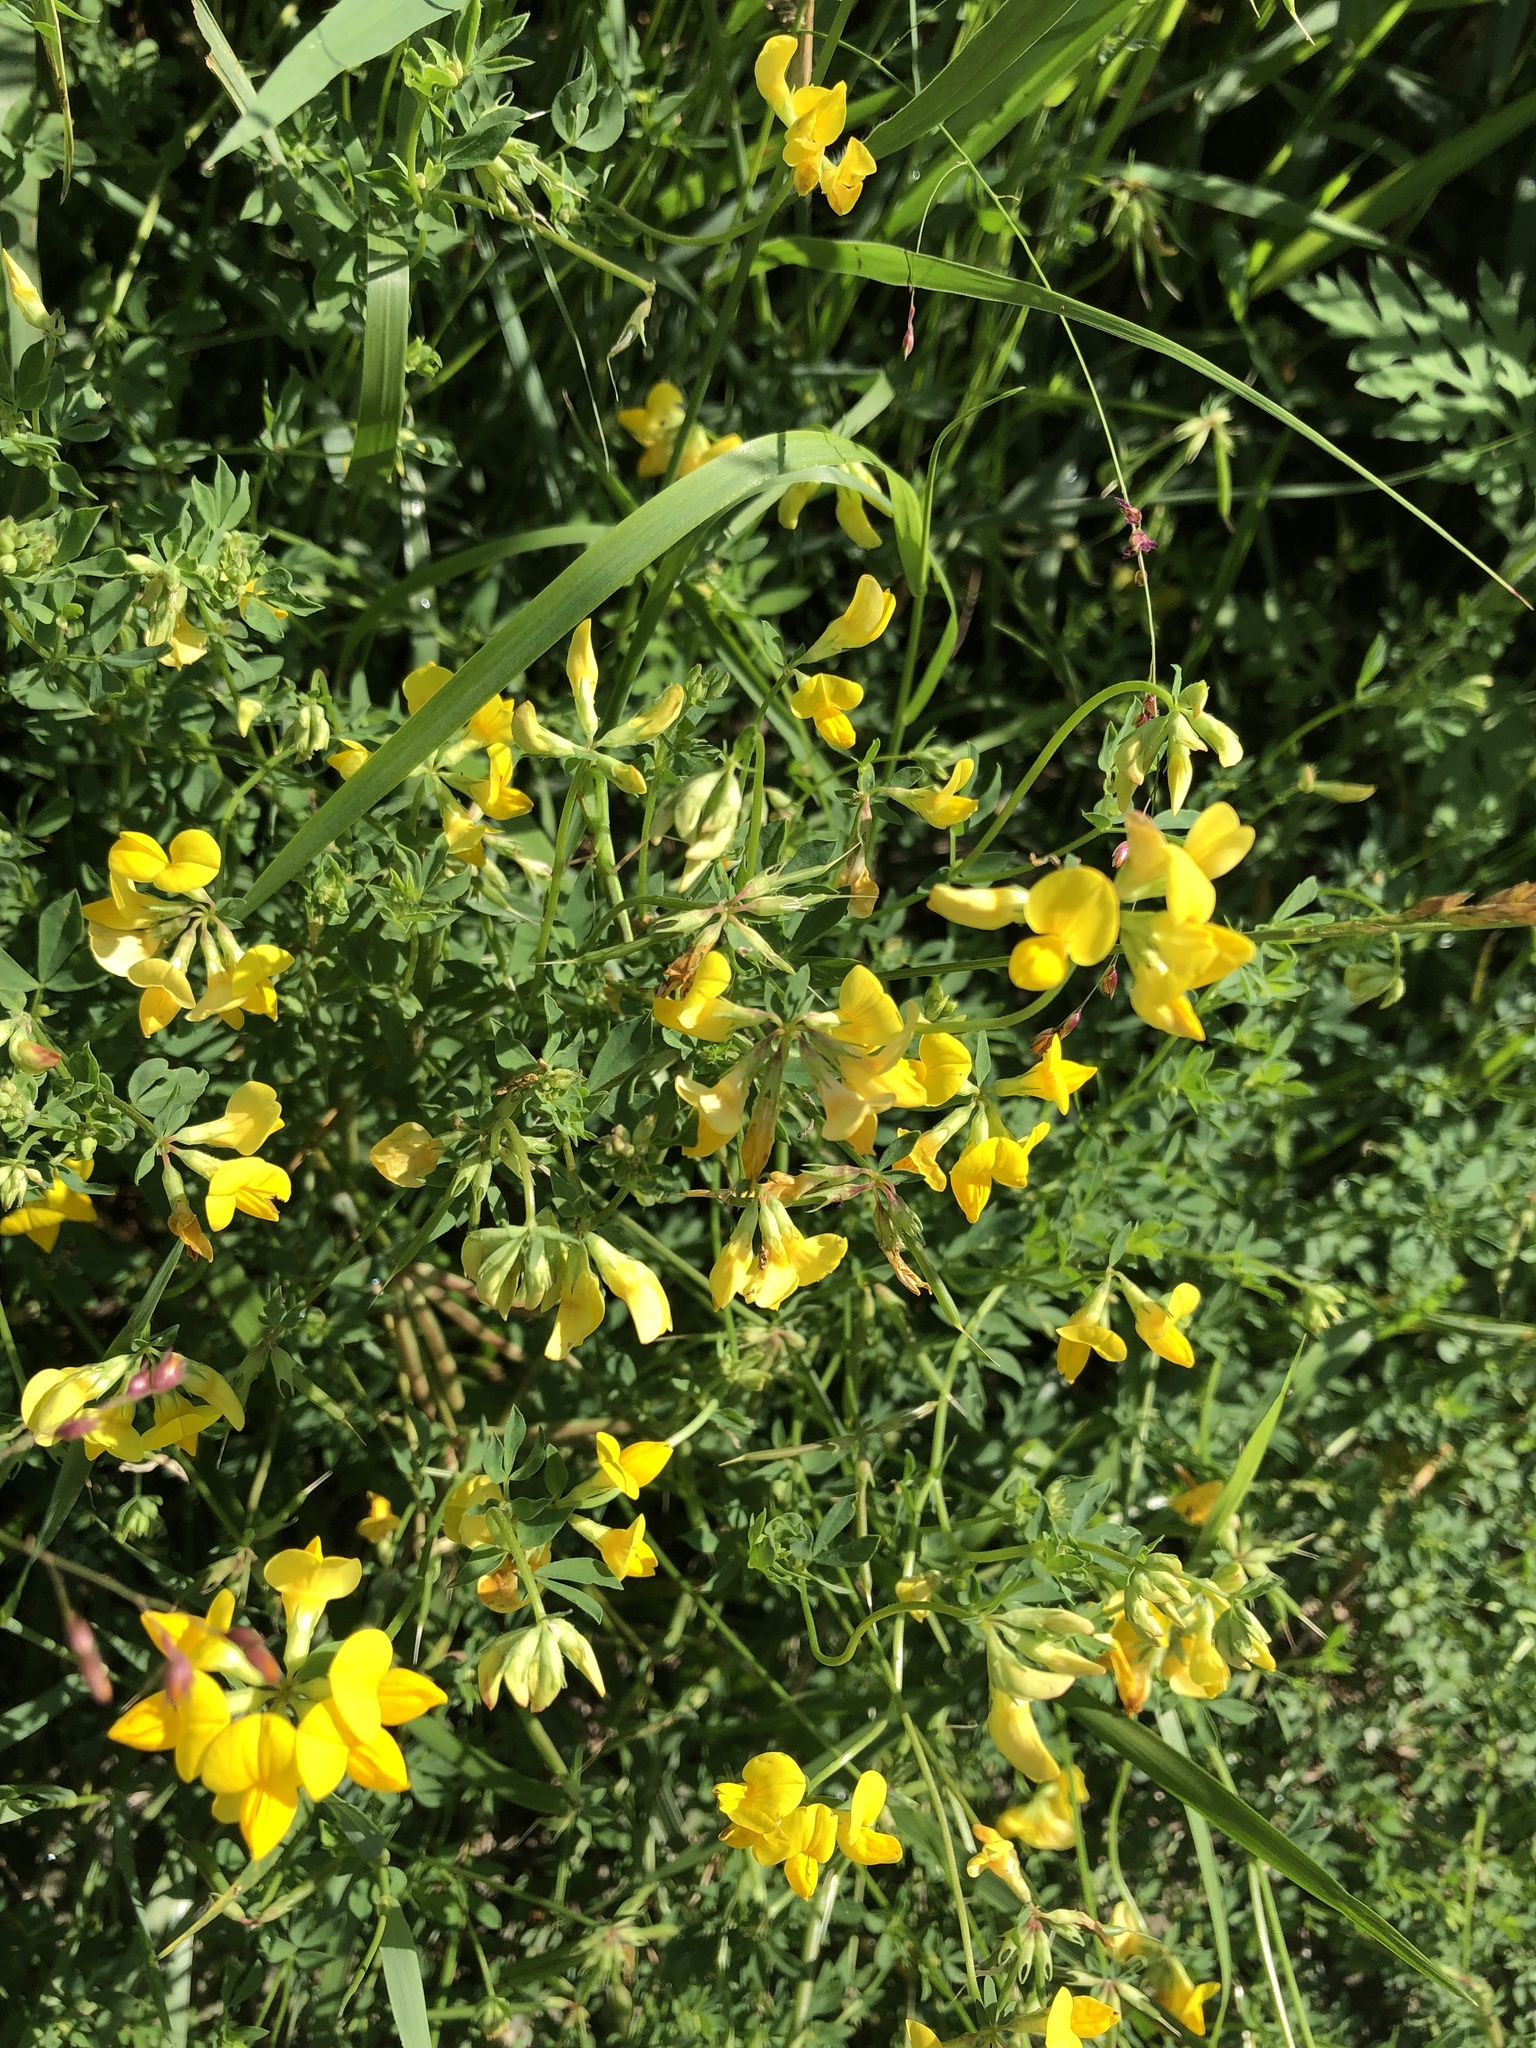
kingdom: Plantae
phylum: Tracheophyta
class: Magnoliopsida
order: Fabales
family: Fabaceae
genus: Lotus
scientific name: Lotus corniculatus
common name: Common bird's-foot-trefoil
